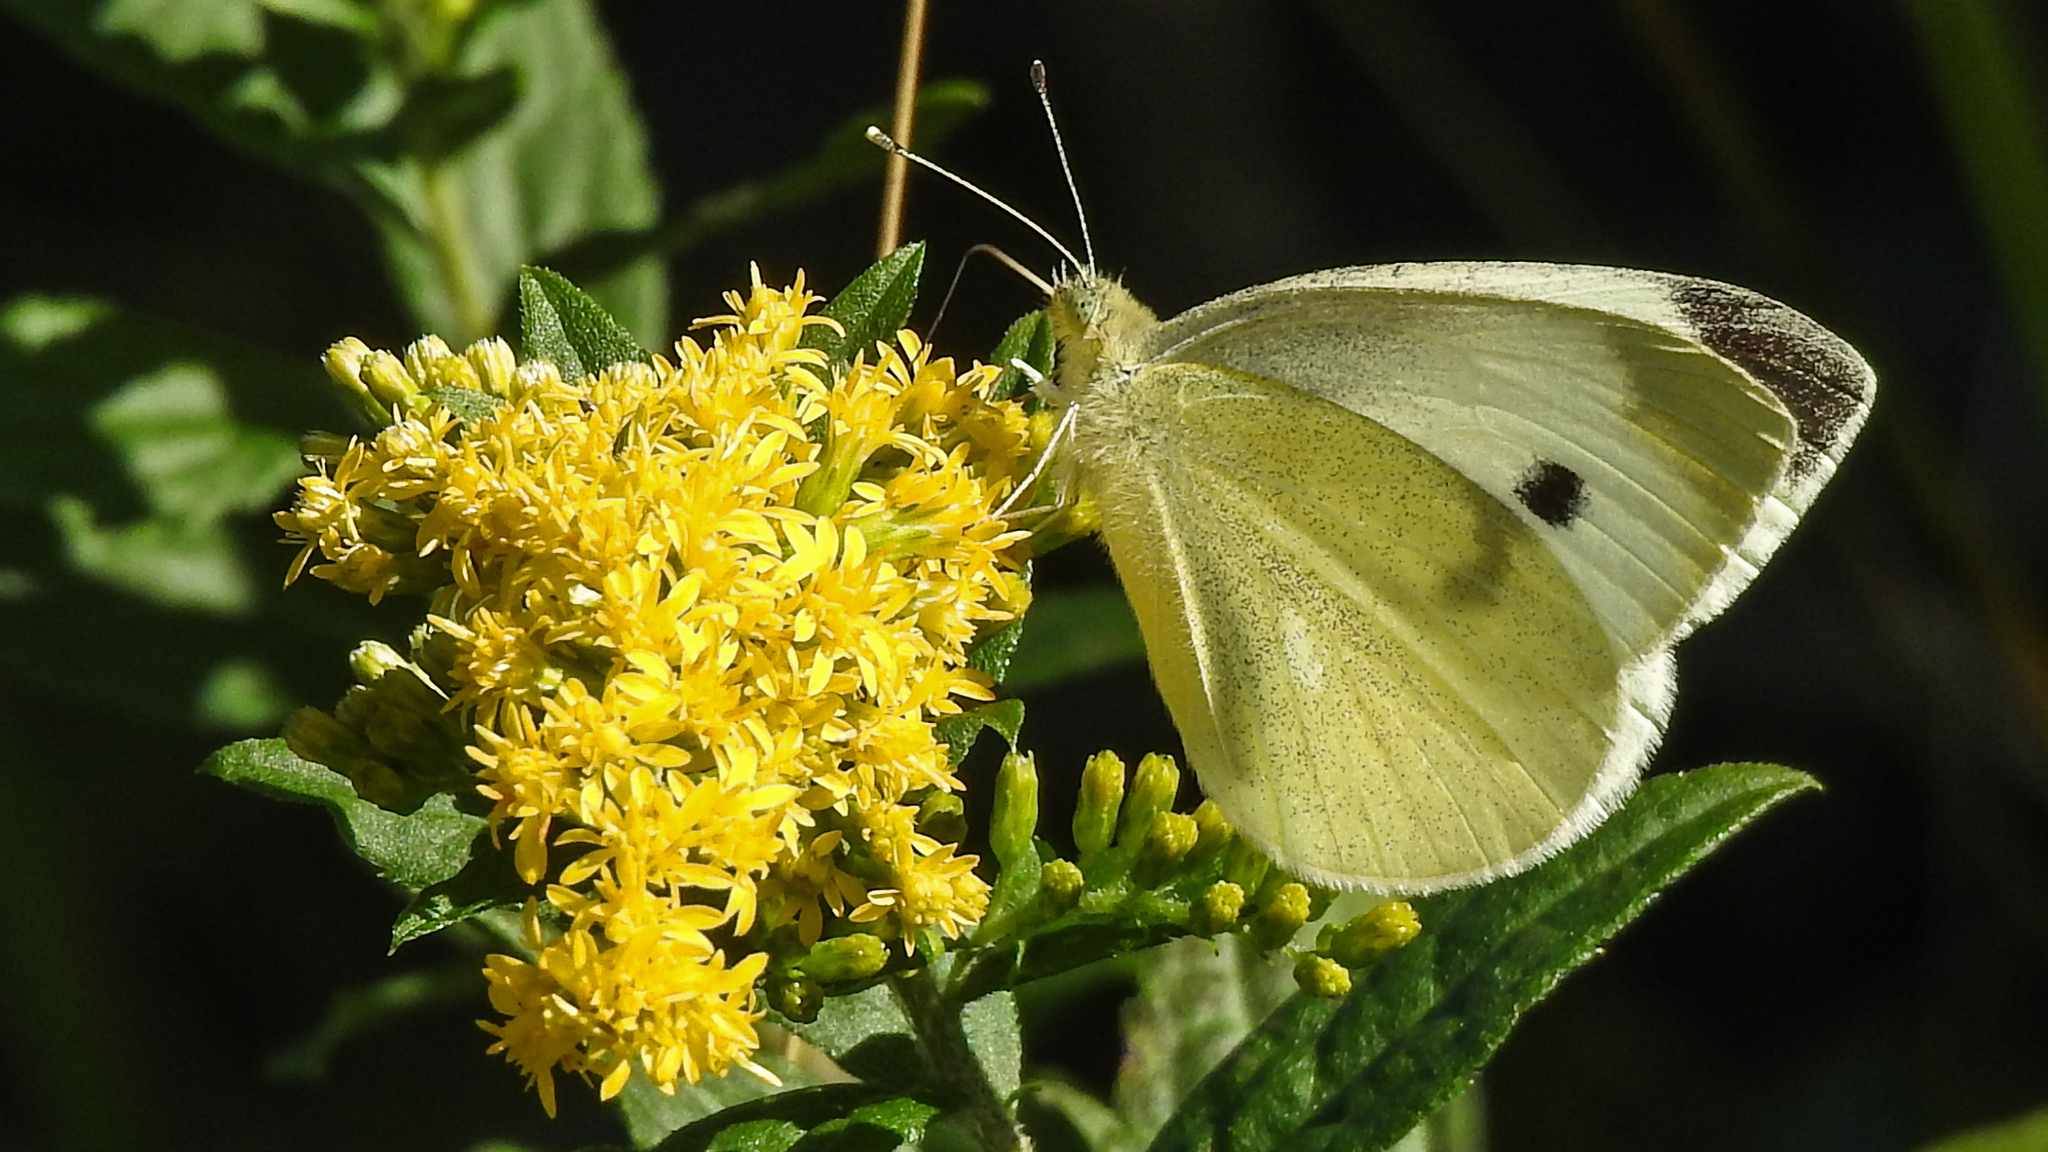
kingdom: Animalia
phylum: Arthropoda
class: Insecta
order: Lepidoptera
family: Pieridae
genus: Pieris
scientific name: Pieris rapae
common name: Small white
